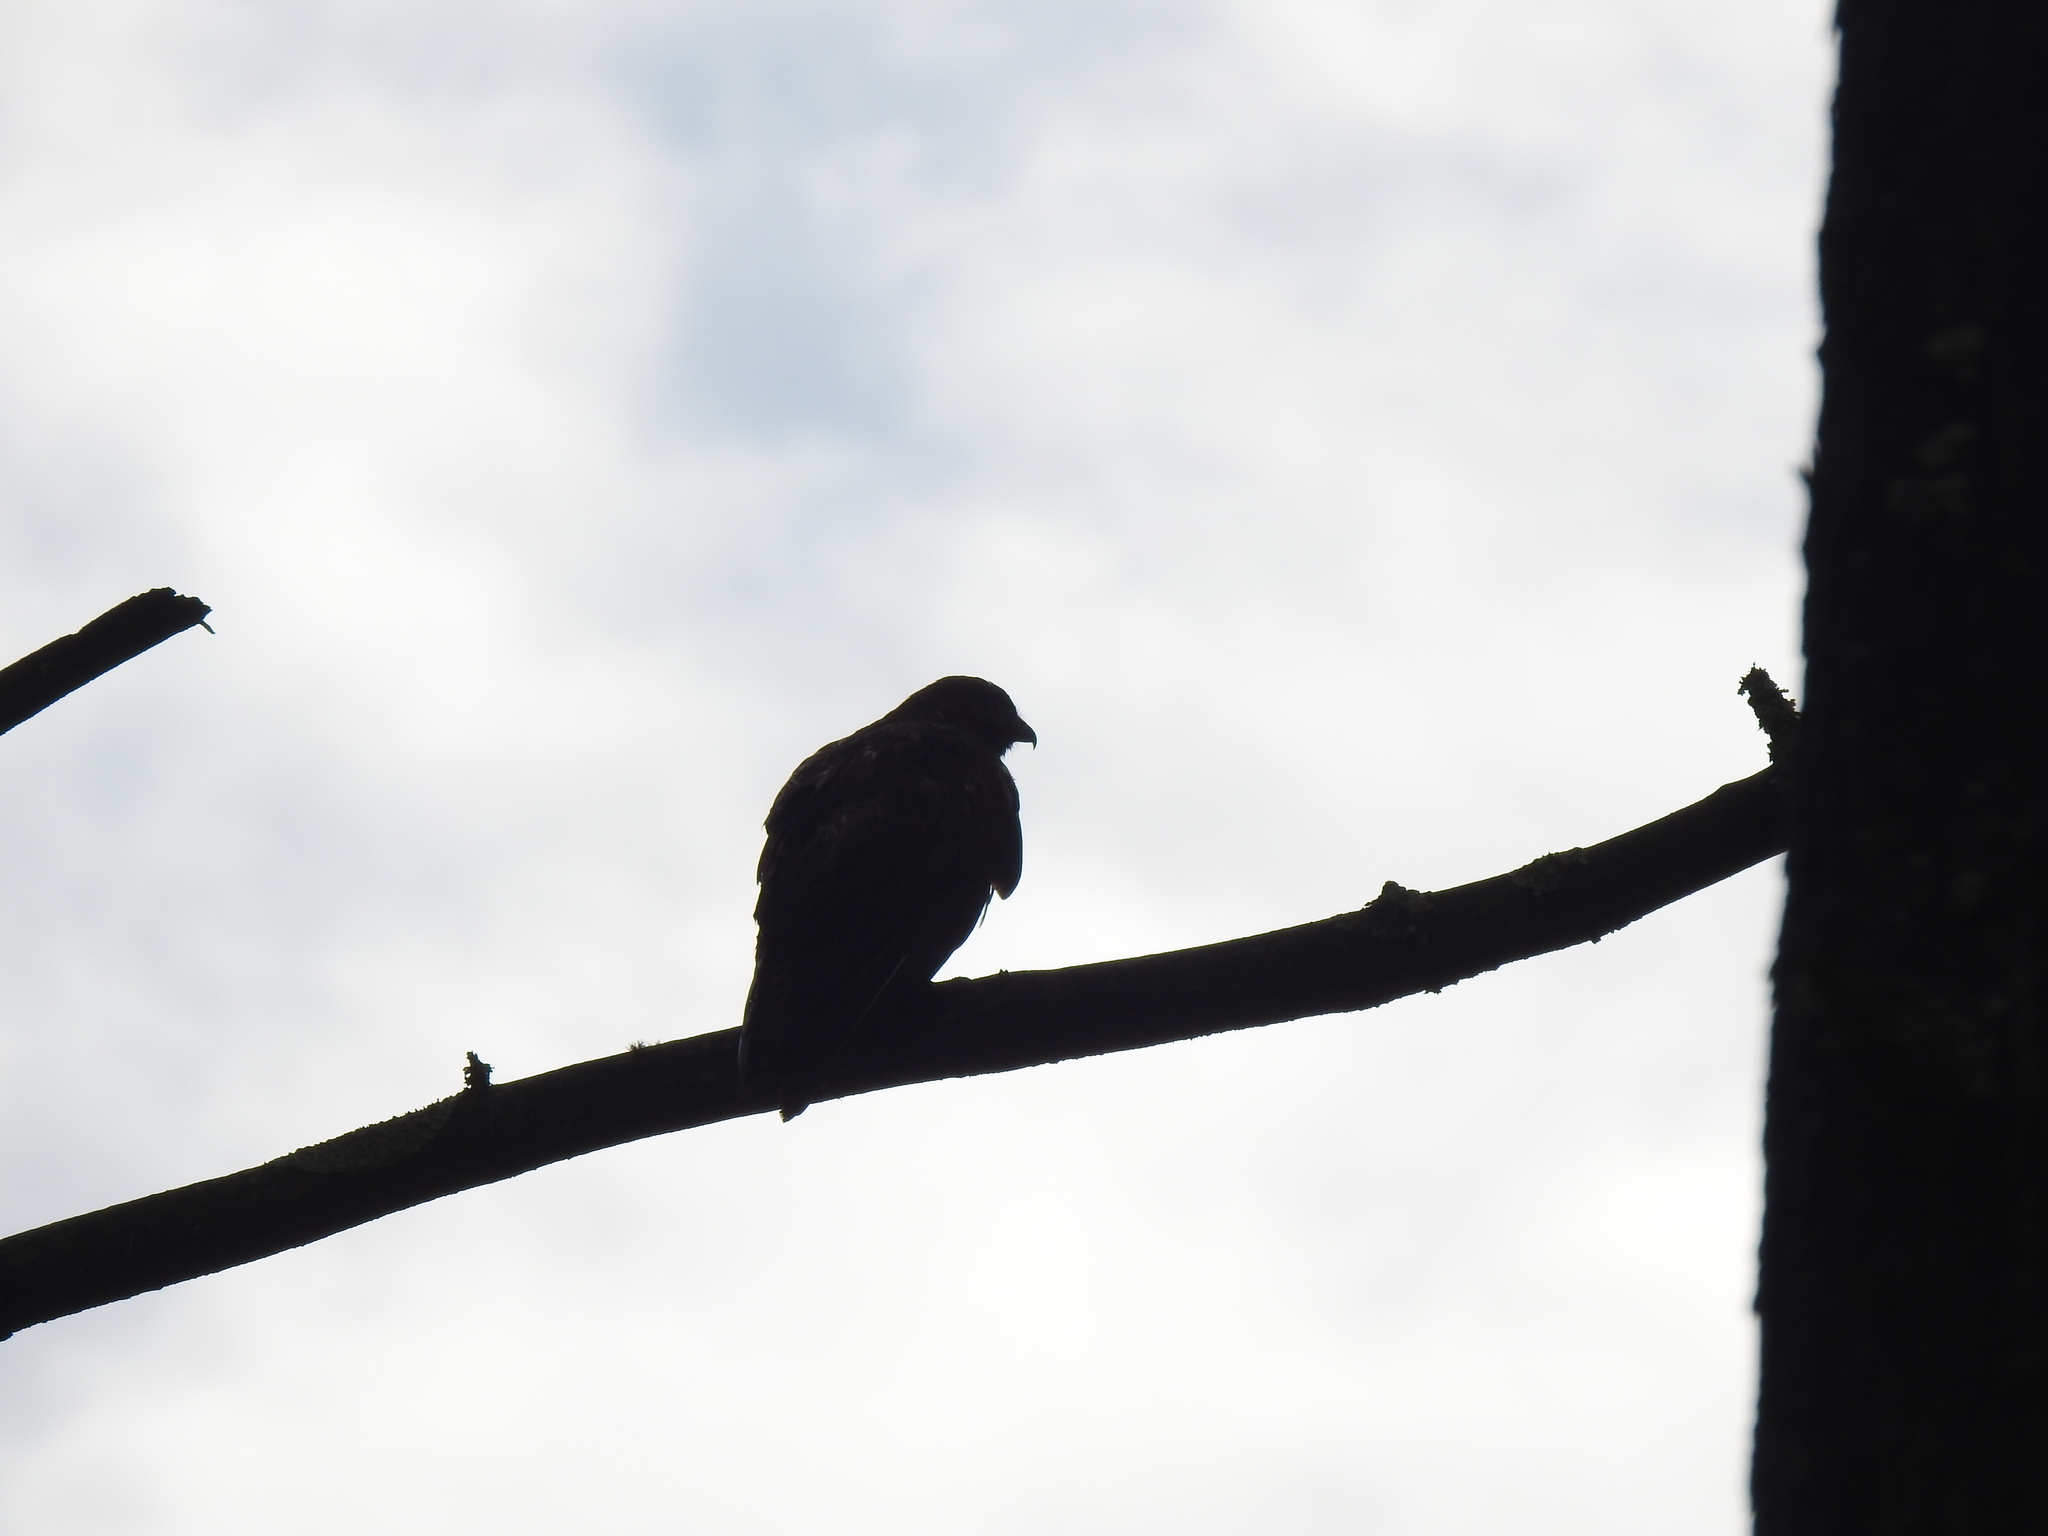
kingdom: Animalia
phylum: Chordata
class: Aves
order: Accipitriformes
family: Accipitridae
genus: Buteo
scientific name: Buteo buteo
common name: Common buzzard
